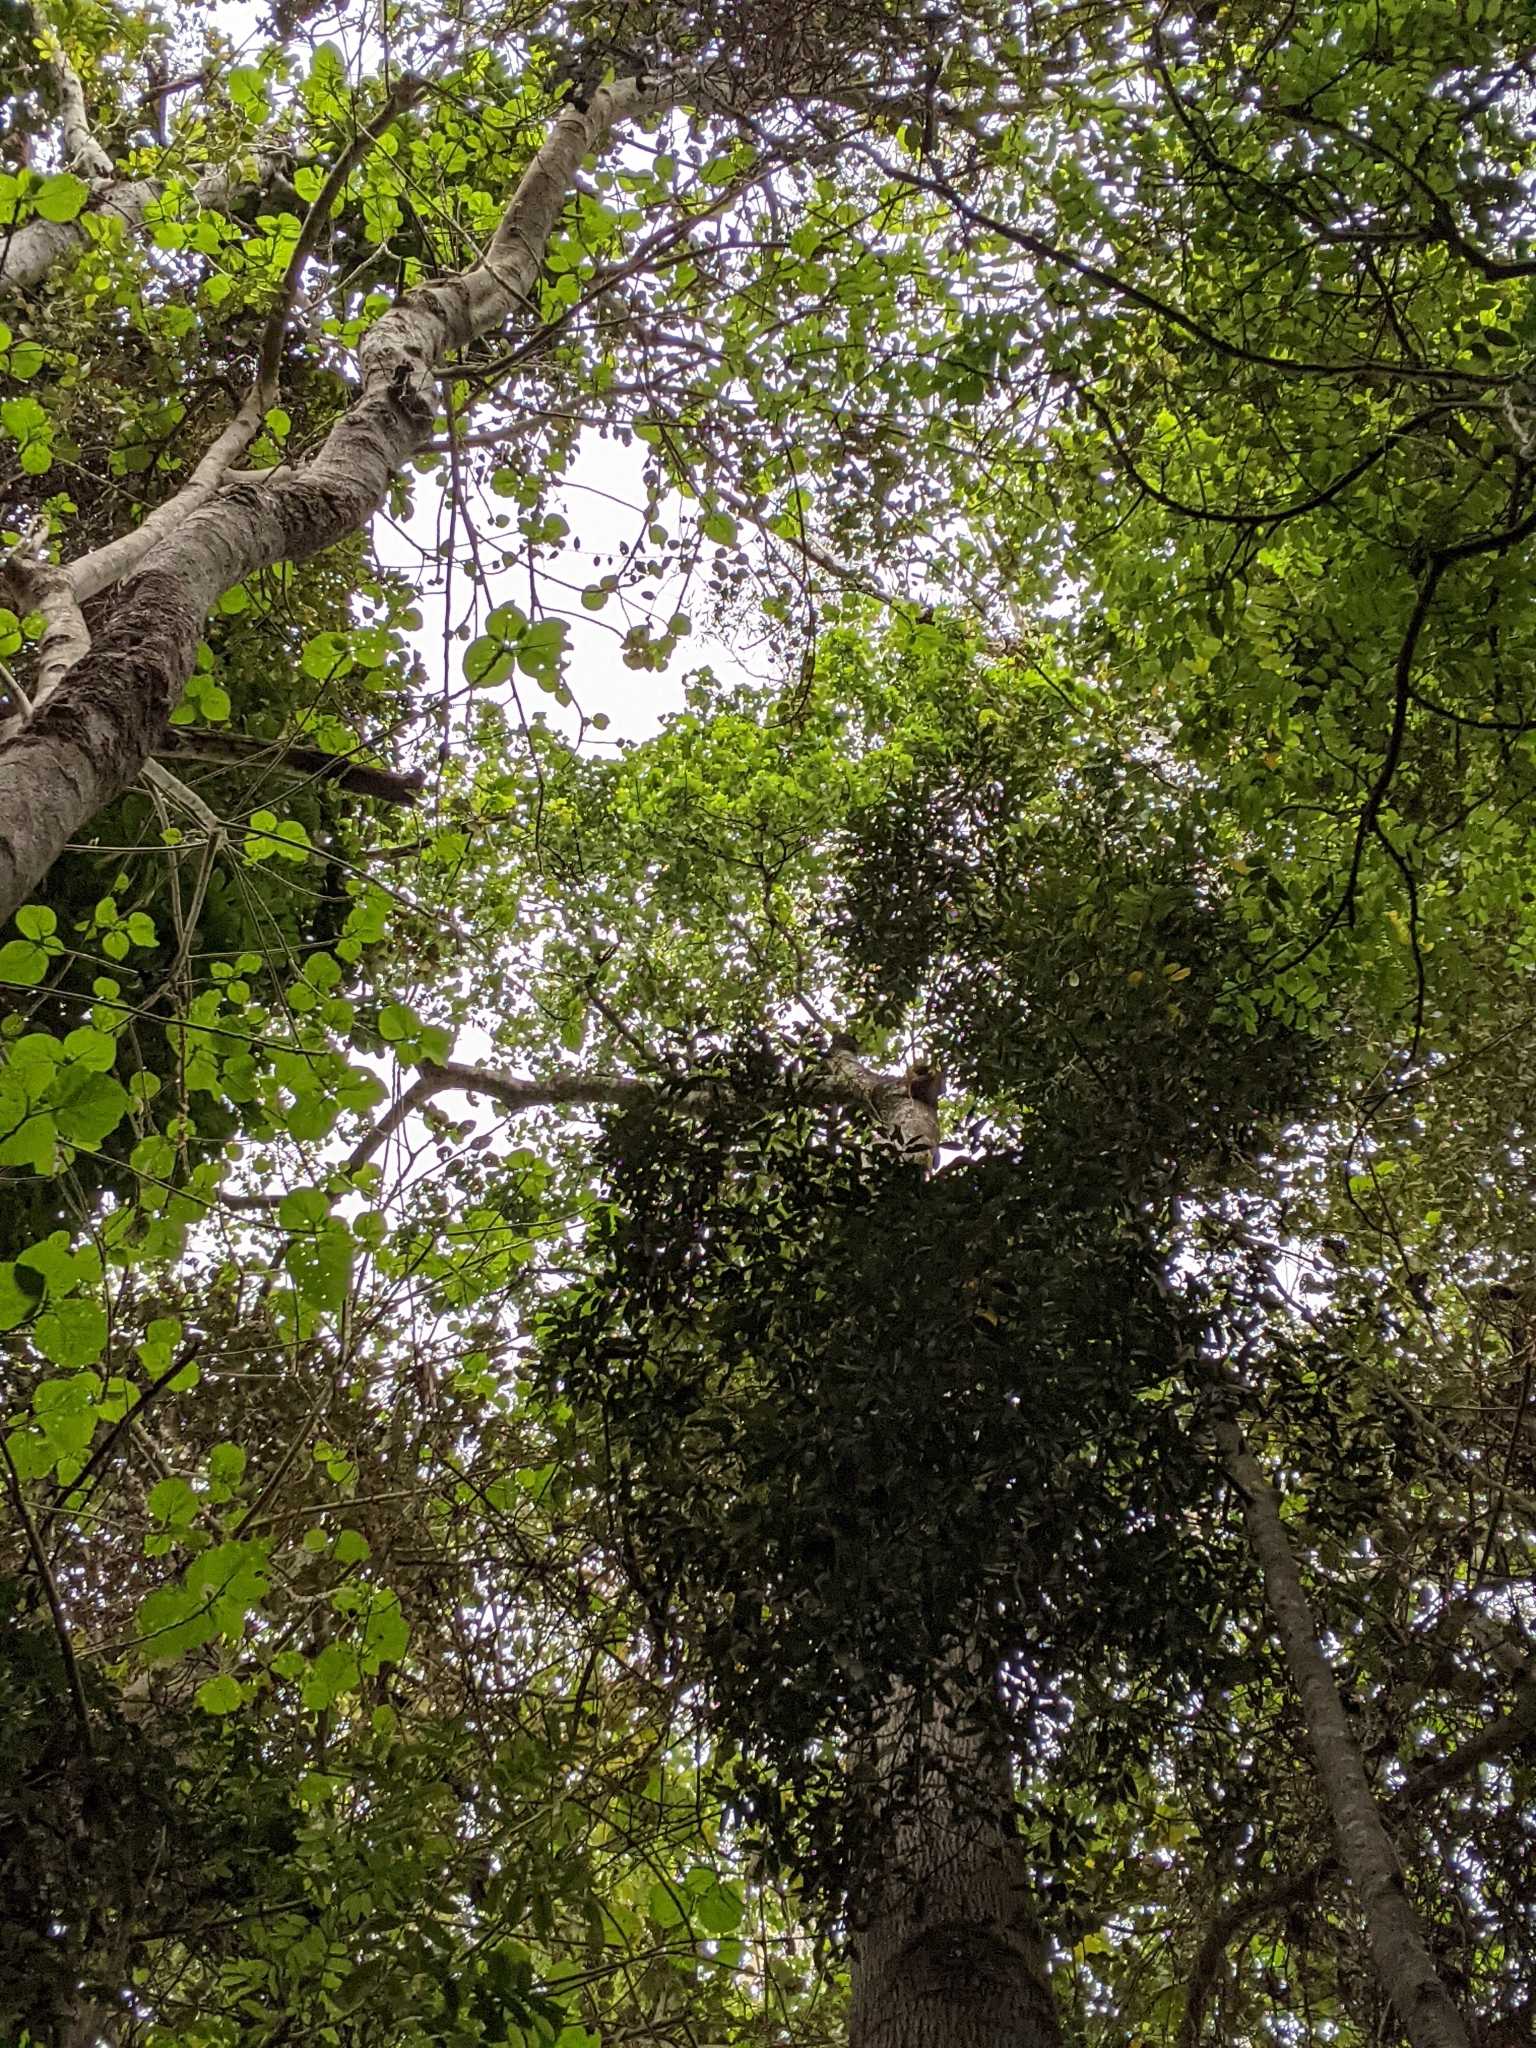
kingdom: Plantae
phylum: Tracheophyta
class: Magnoliopsida
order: Malvales
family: Malvaceae
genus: Brachychiton
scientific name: Brachychiton discolor
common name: Queensland lacebark
